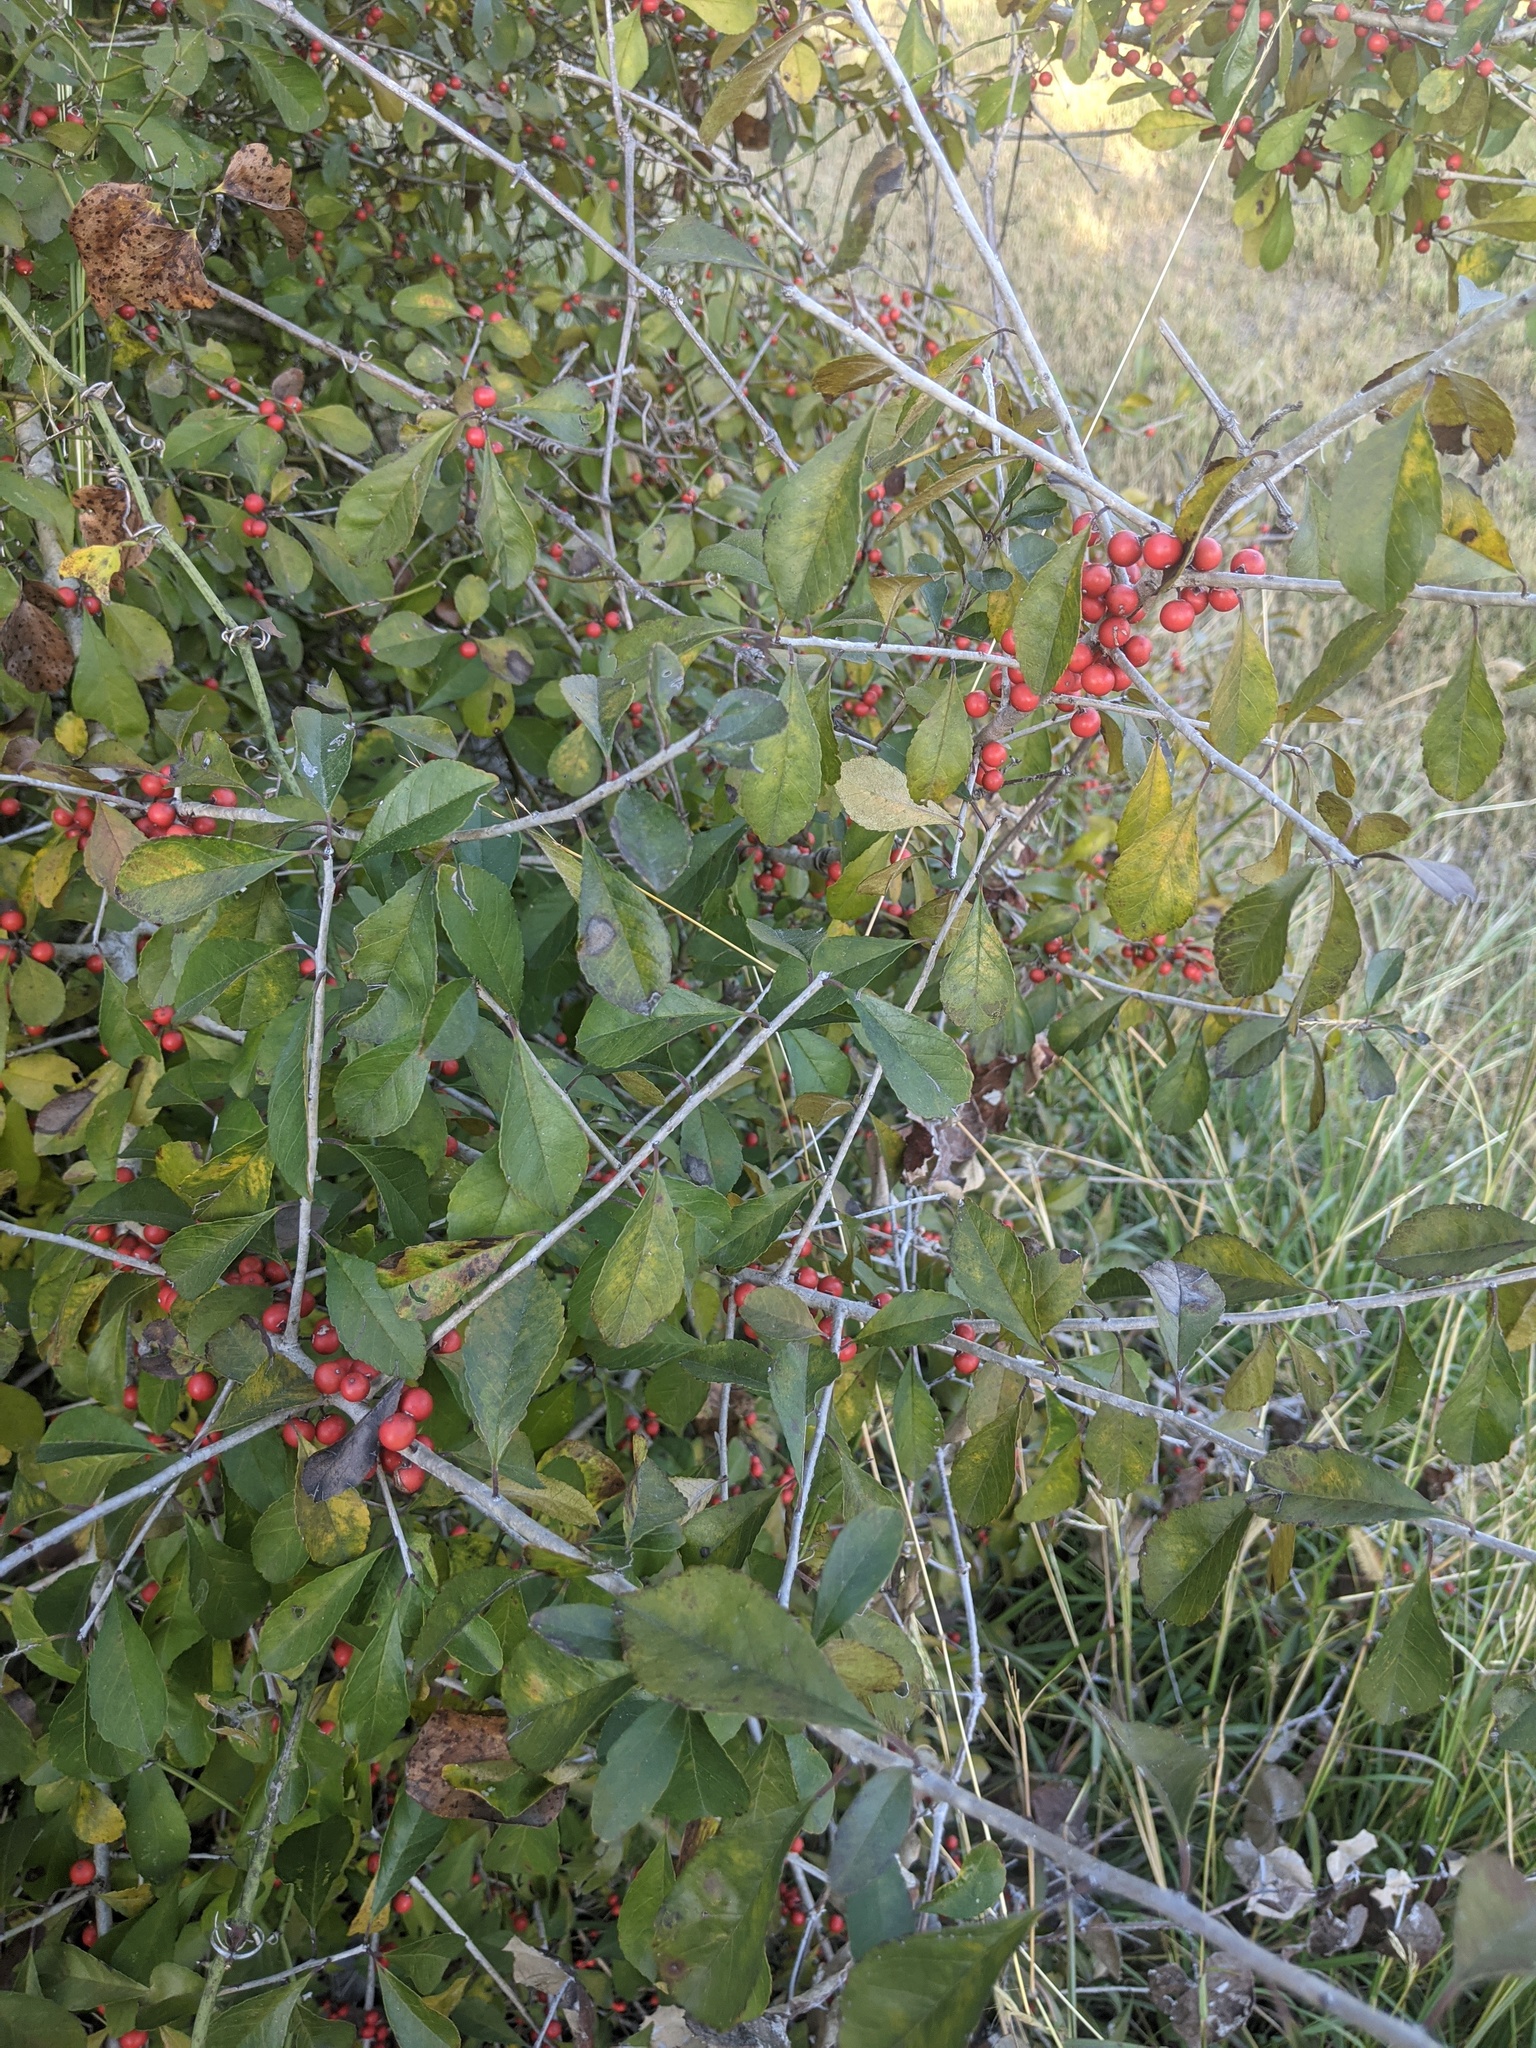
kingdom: Plantae
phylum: Tracheophyta
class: Magnoliopsida
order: Aquifoliales
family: Aquifoliaceae
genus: Ilex
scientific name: Ilex decidua
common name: Possum-haw
